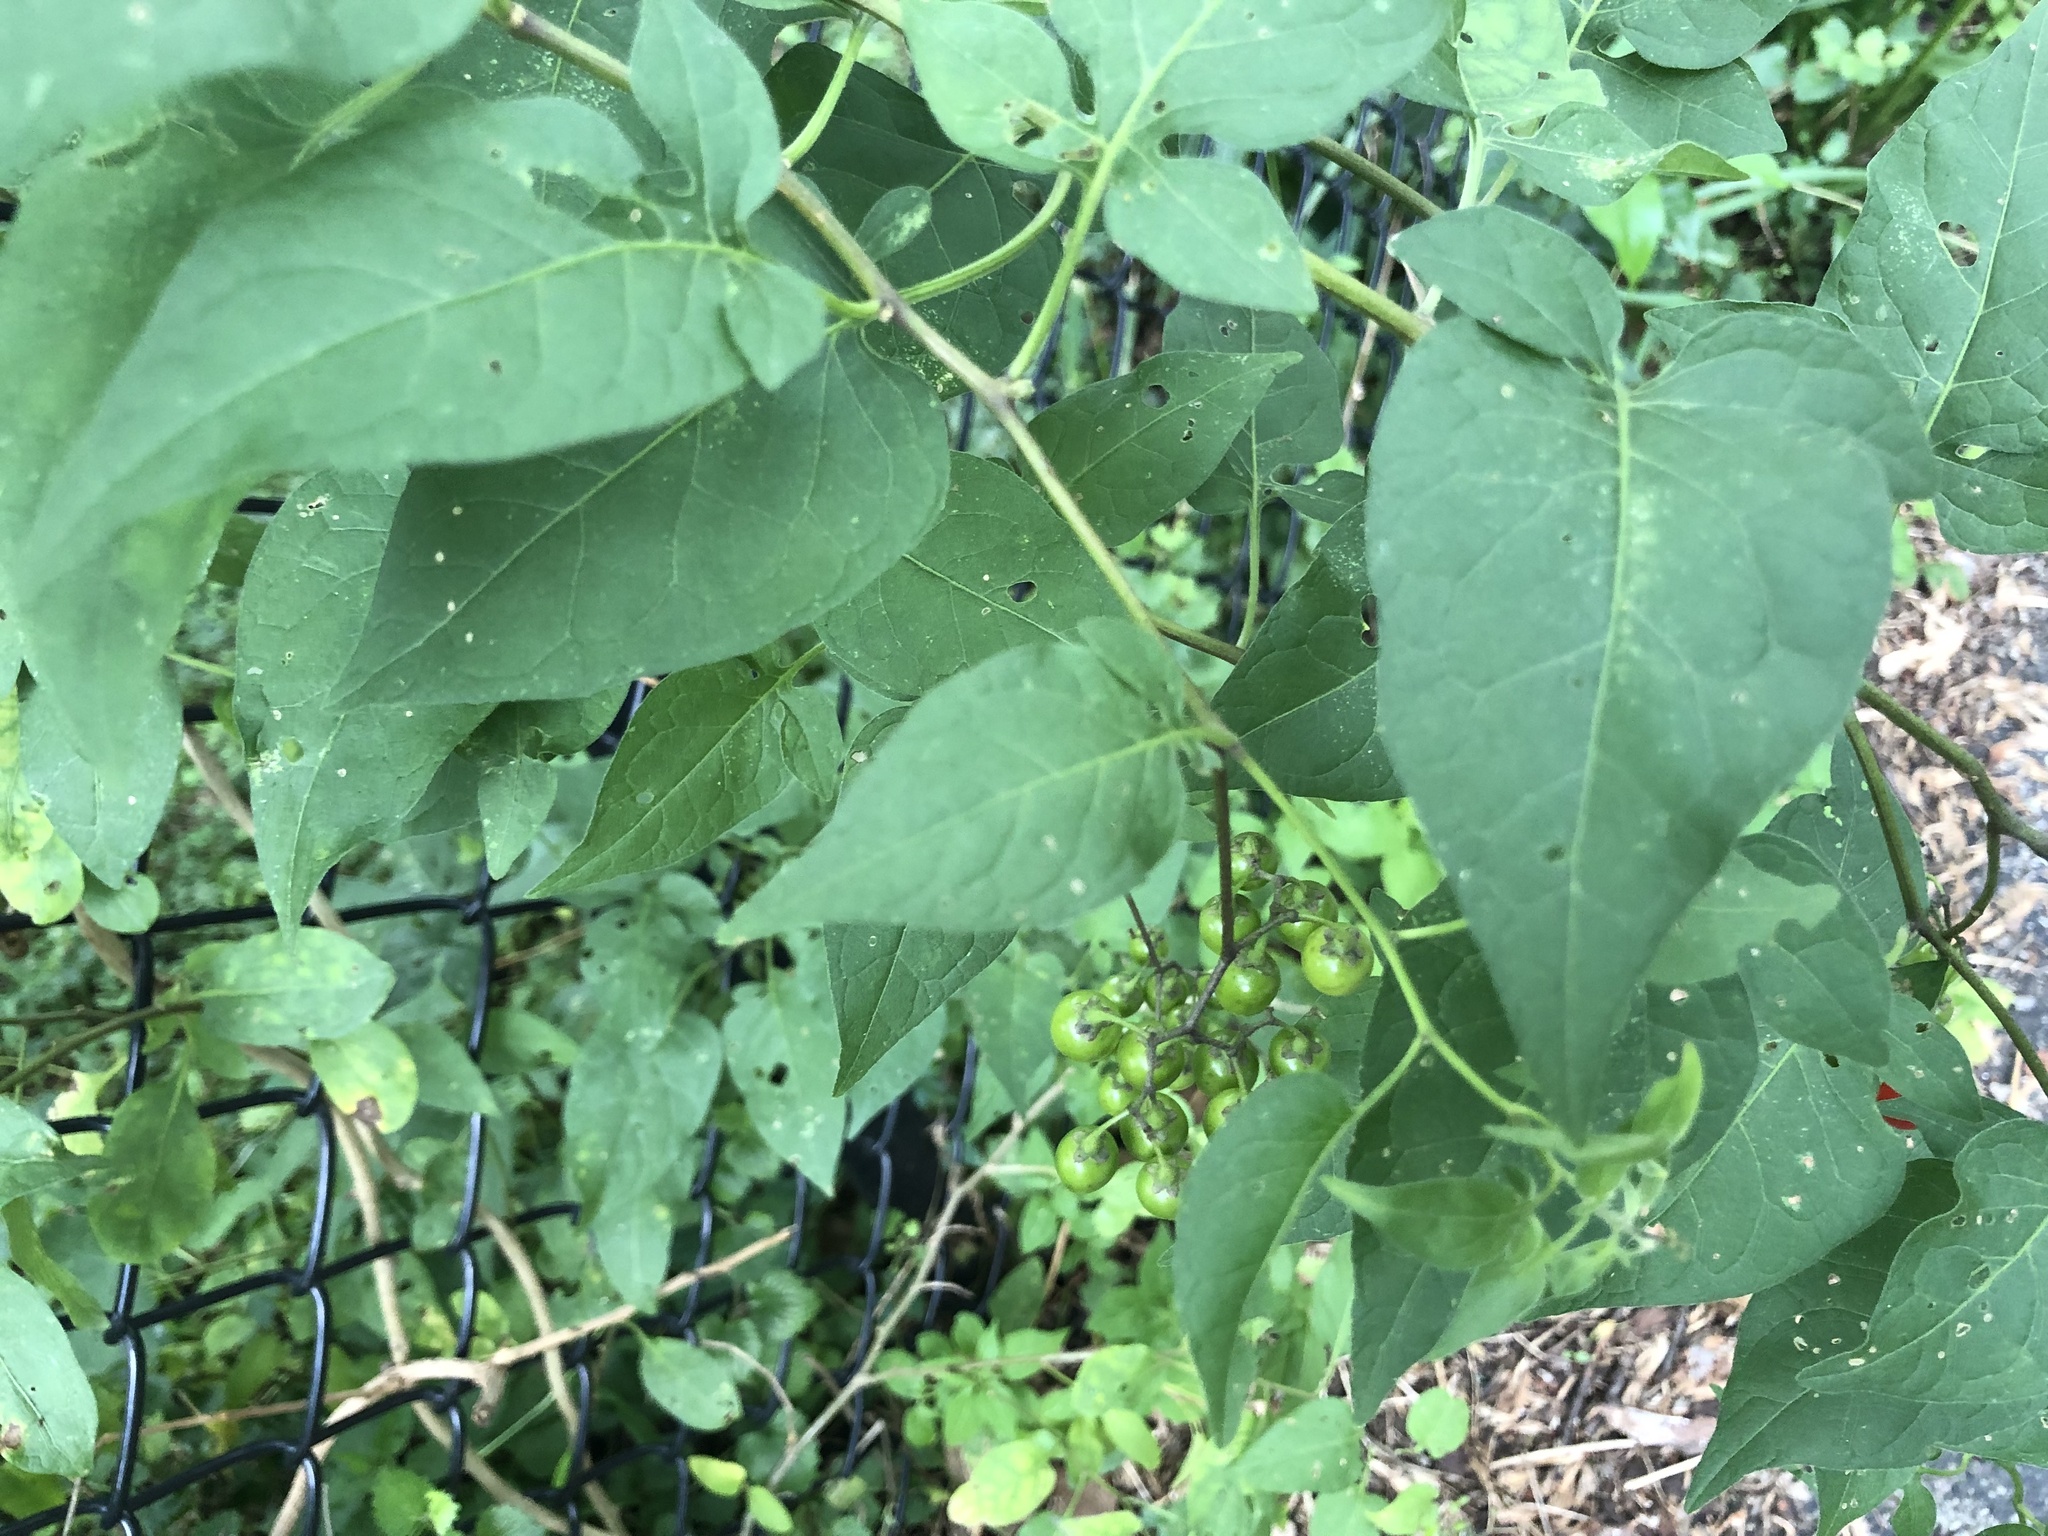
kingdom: Plantae
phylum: Tracheophyta
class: Magnoliopsida
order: Solanales
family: Solanaceae
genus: Solanum
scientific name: Solanum dulcamara
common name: Climbing nightshade
